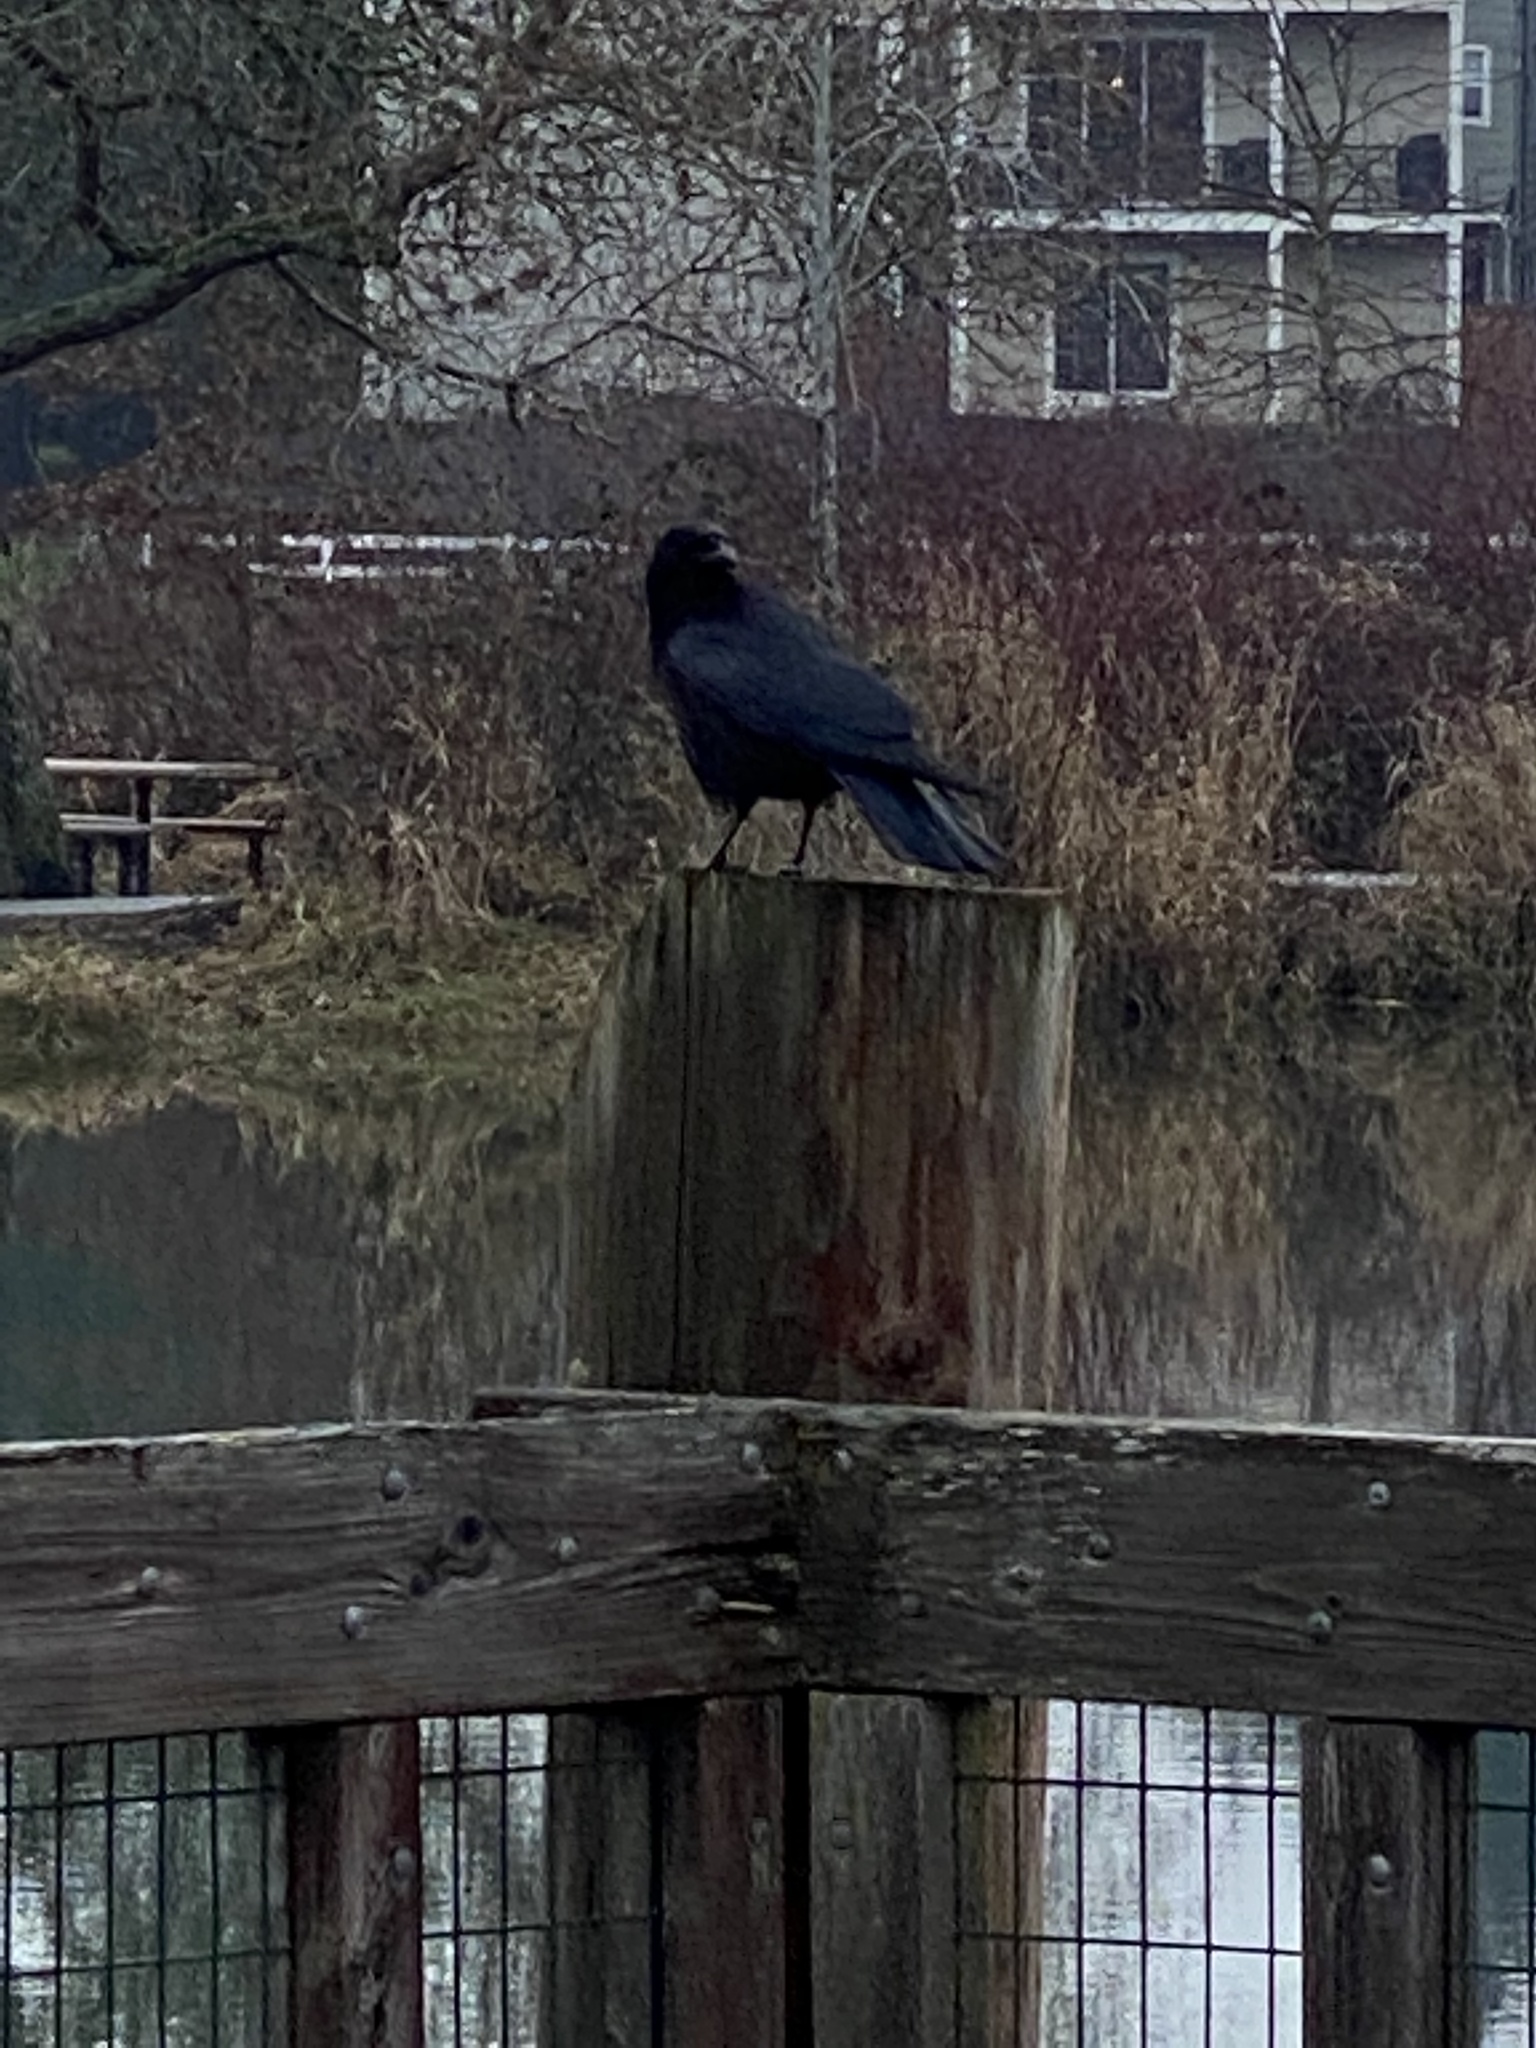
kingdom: Animalia
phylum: Chordata
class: Aves
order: Passeriformes
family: Corvidae
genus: Corvus
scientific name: Corvus brachyrhynchos
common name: American crow
